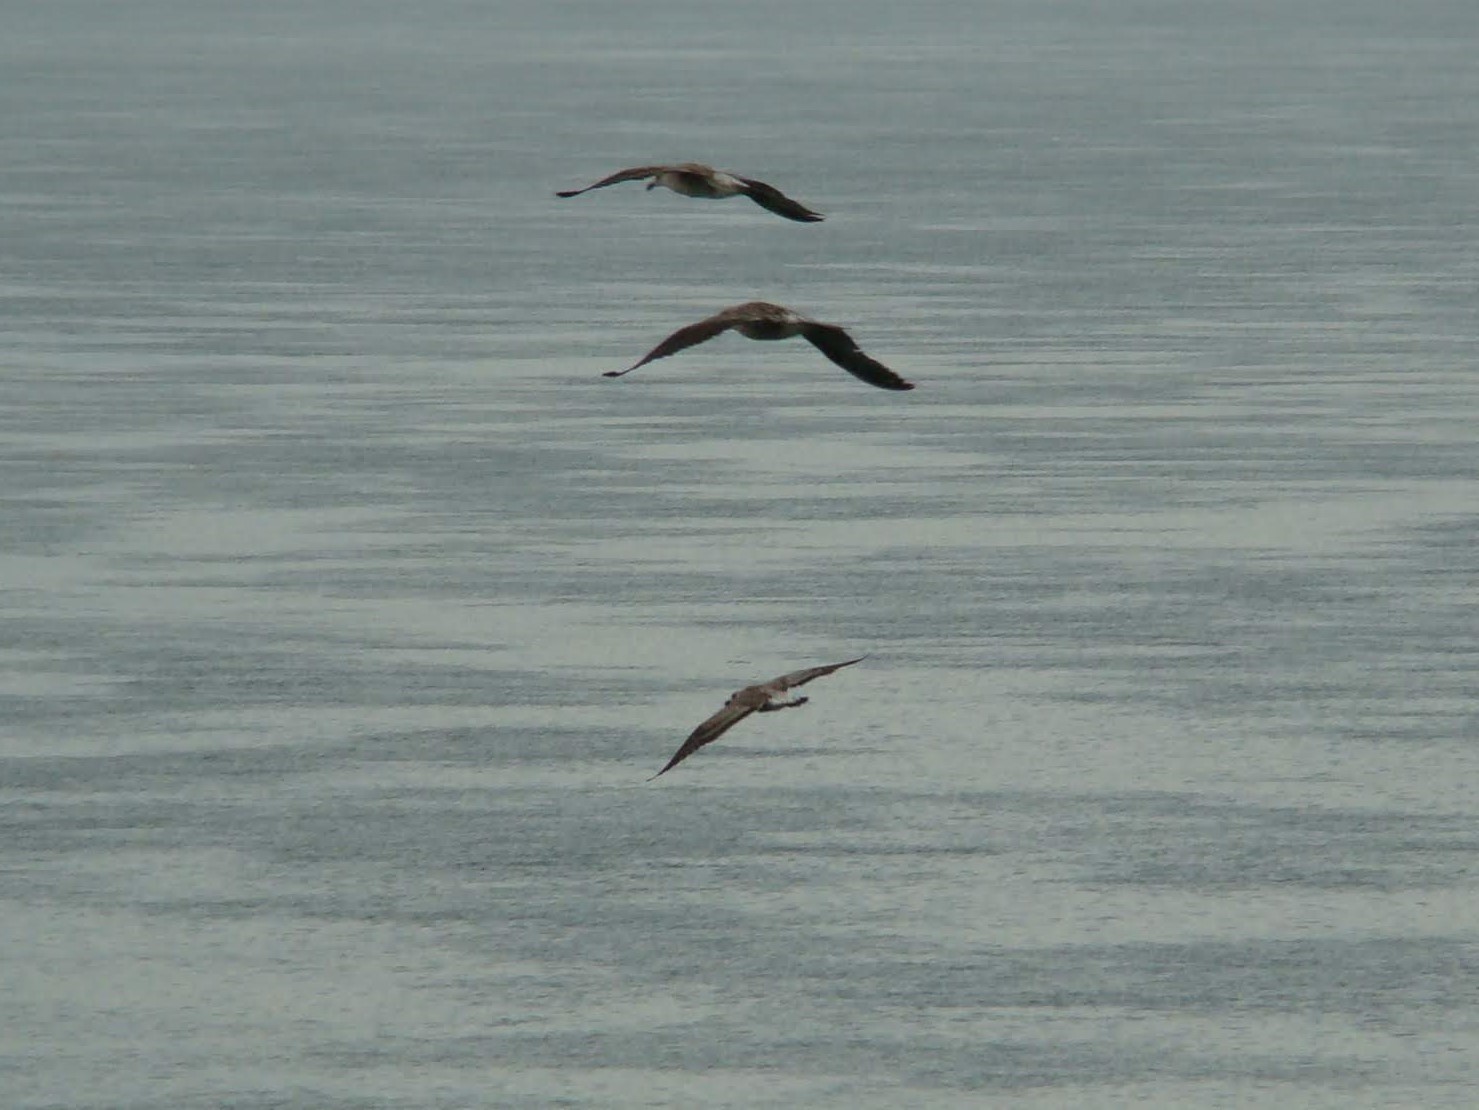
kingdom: Animalia
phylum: Chordata
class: Aves
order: Charadriiformes
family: Laridae
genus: Larus
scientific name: Larus dominicanus
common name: Kelp gull
